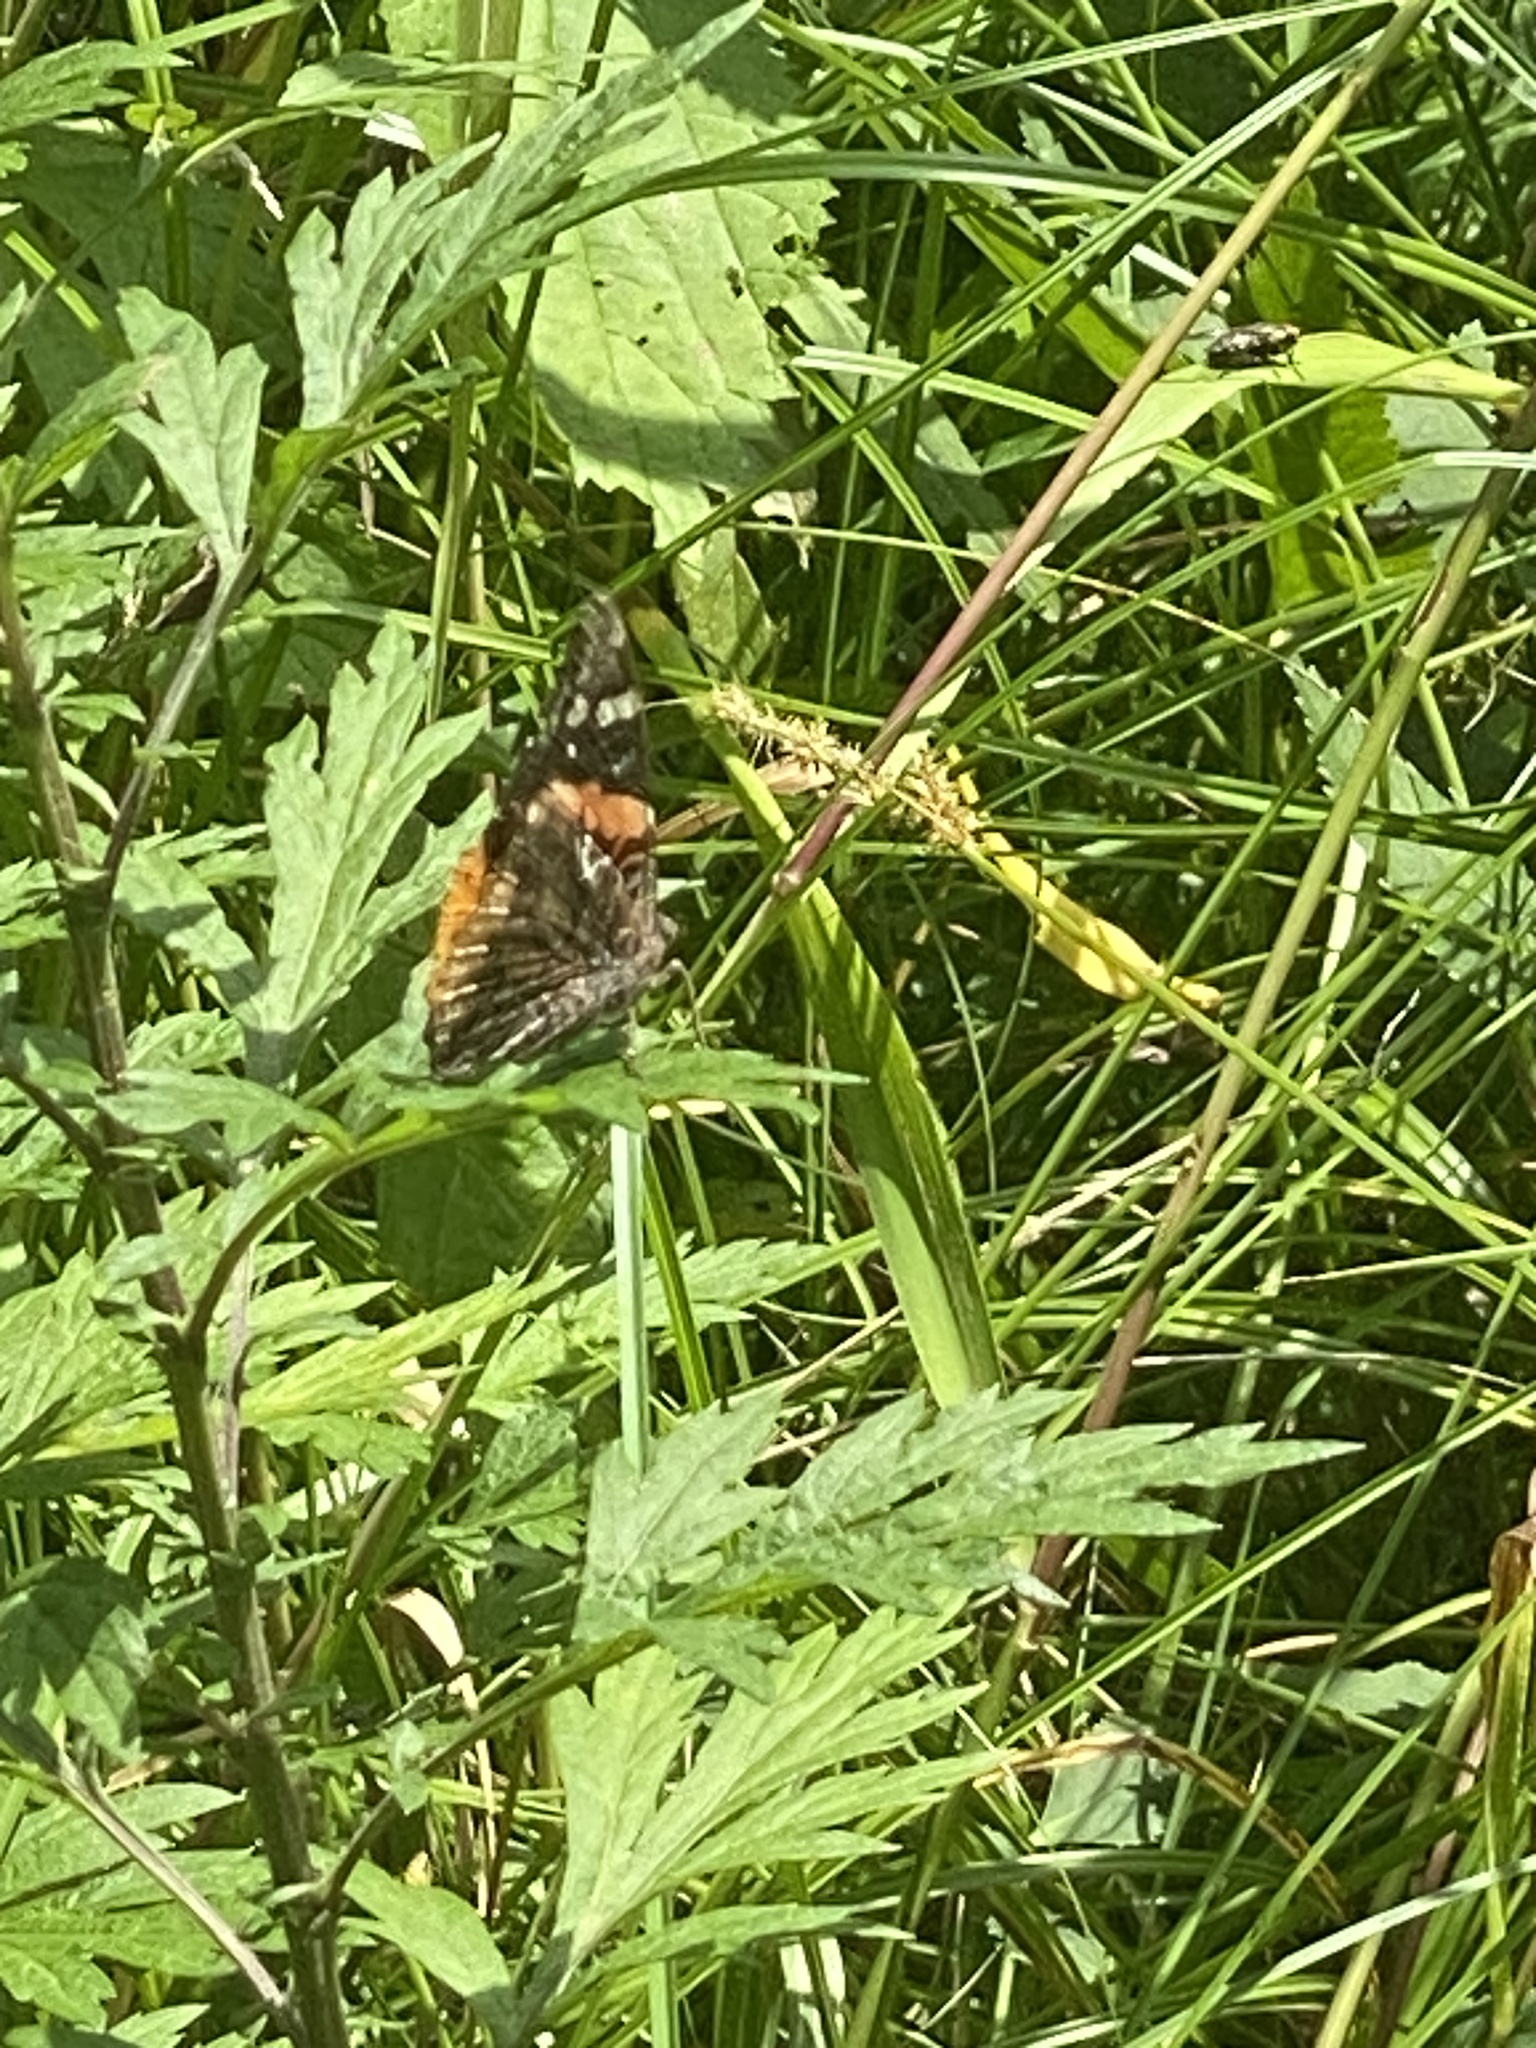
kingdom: Animalia
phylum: Arthropoda
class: Insecta
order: Lepidoptera
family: Nymphalidae
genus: Vanessa
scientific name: Vanessa atalanta
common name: Red admiral
